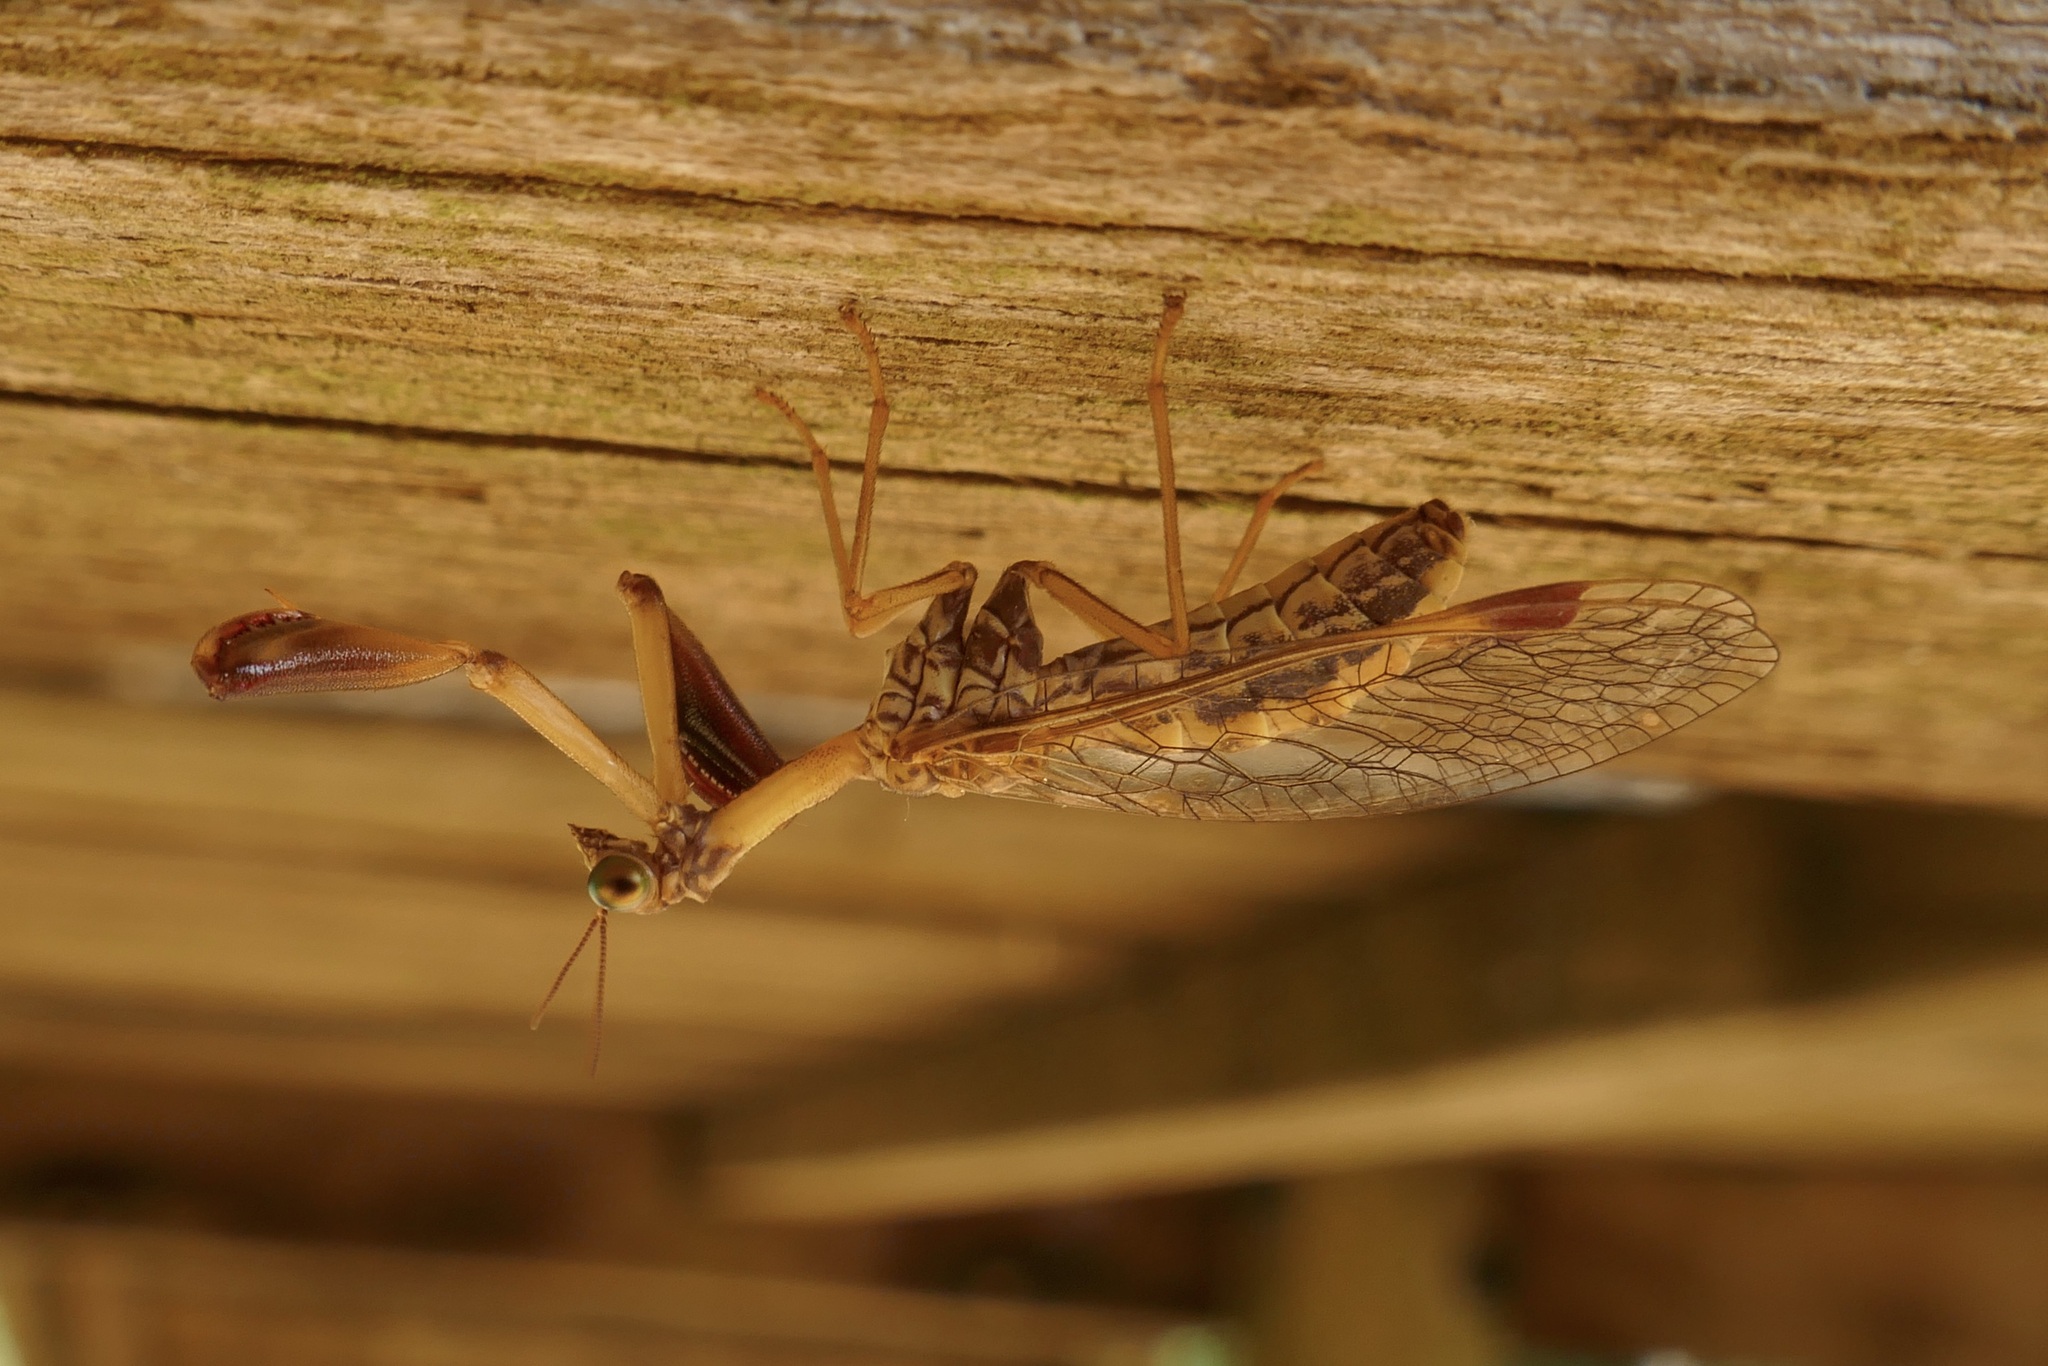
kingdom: Animalia
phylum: Arthropoda
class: Insecta
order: Neuroptera
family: Mantispidae
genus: Mantispa
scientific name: Mantispa styriaca
